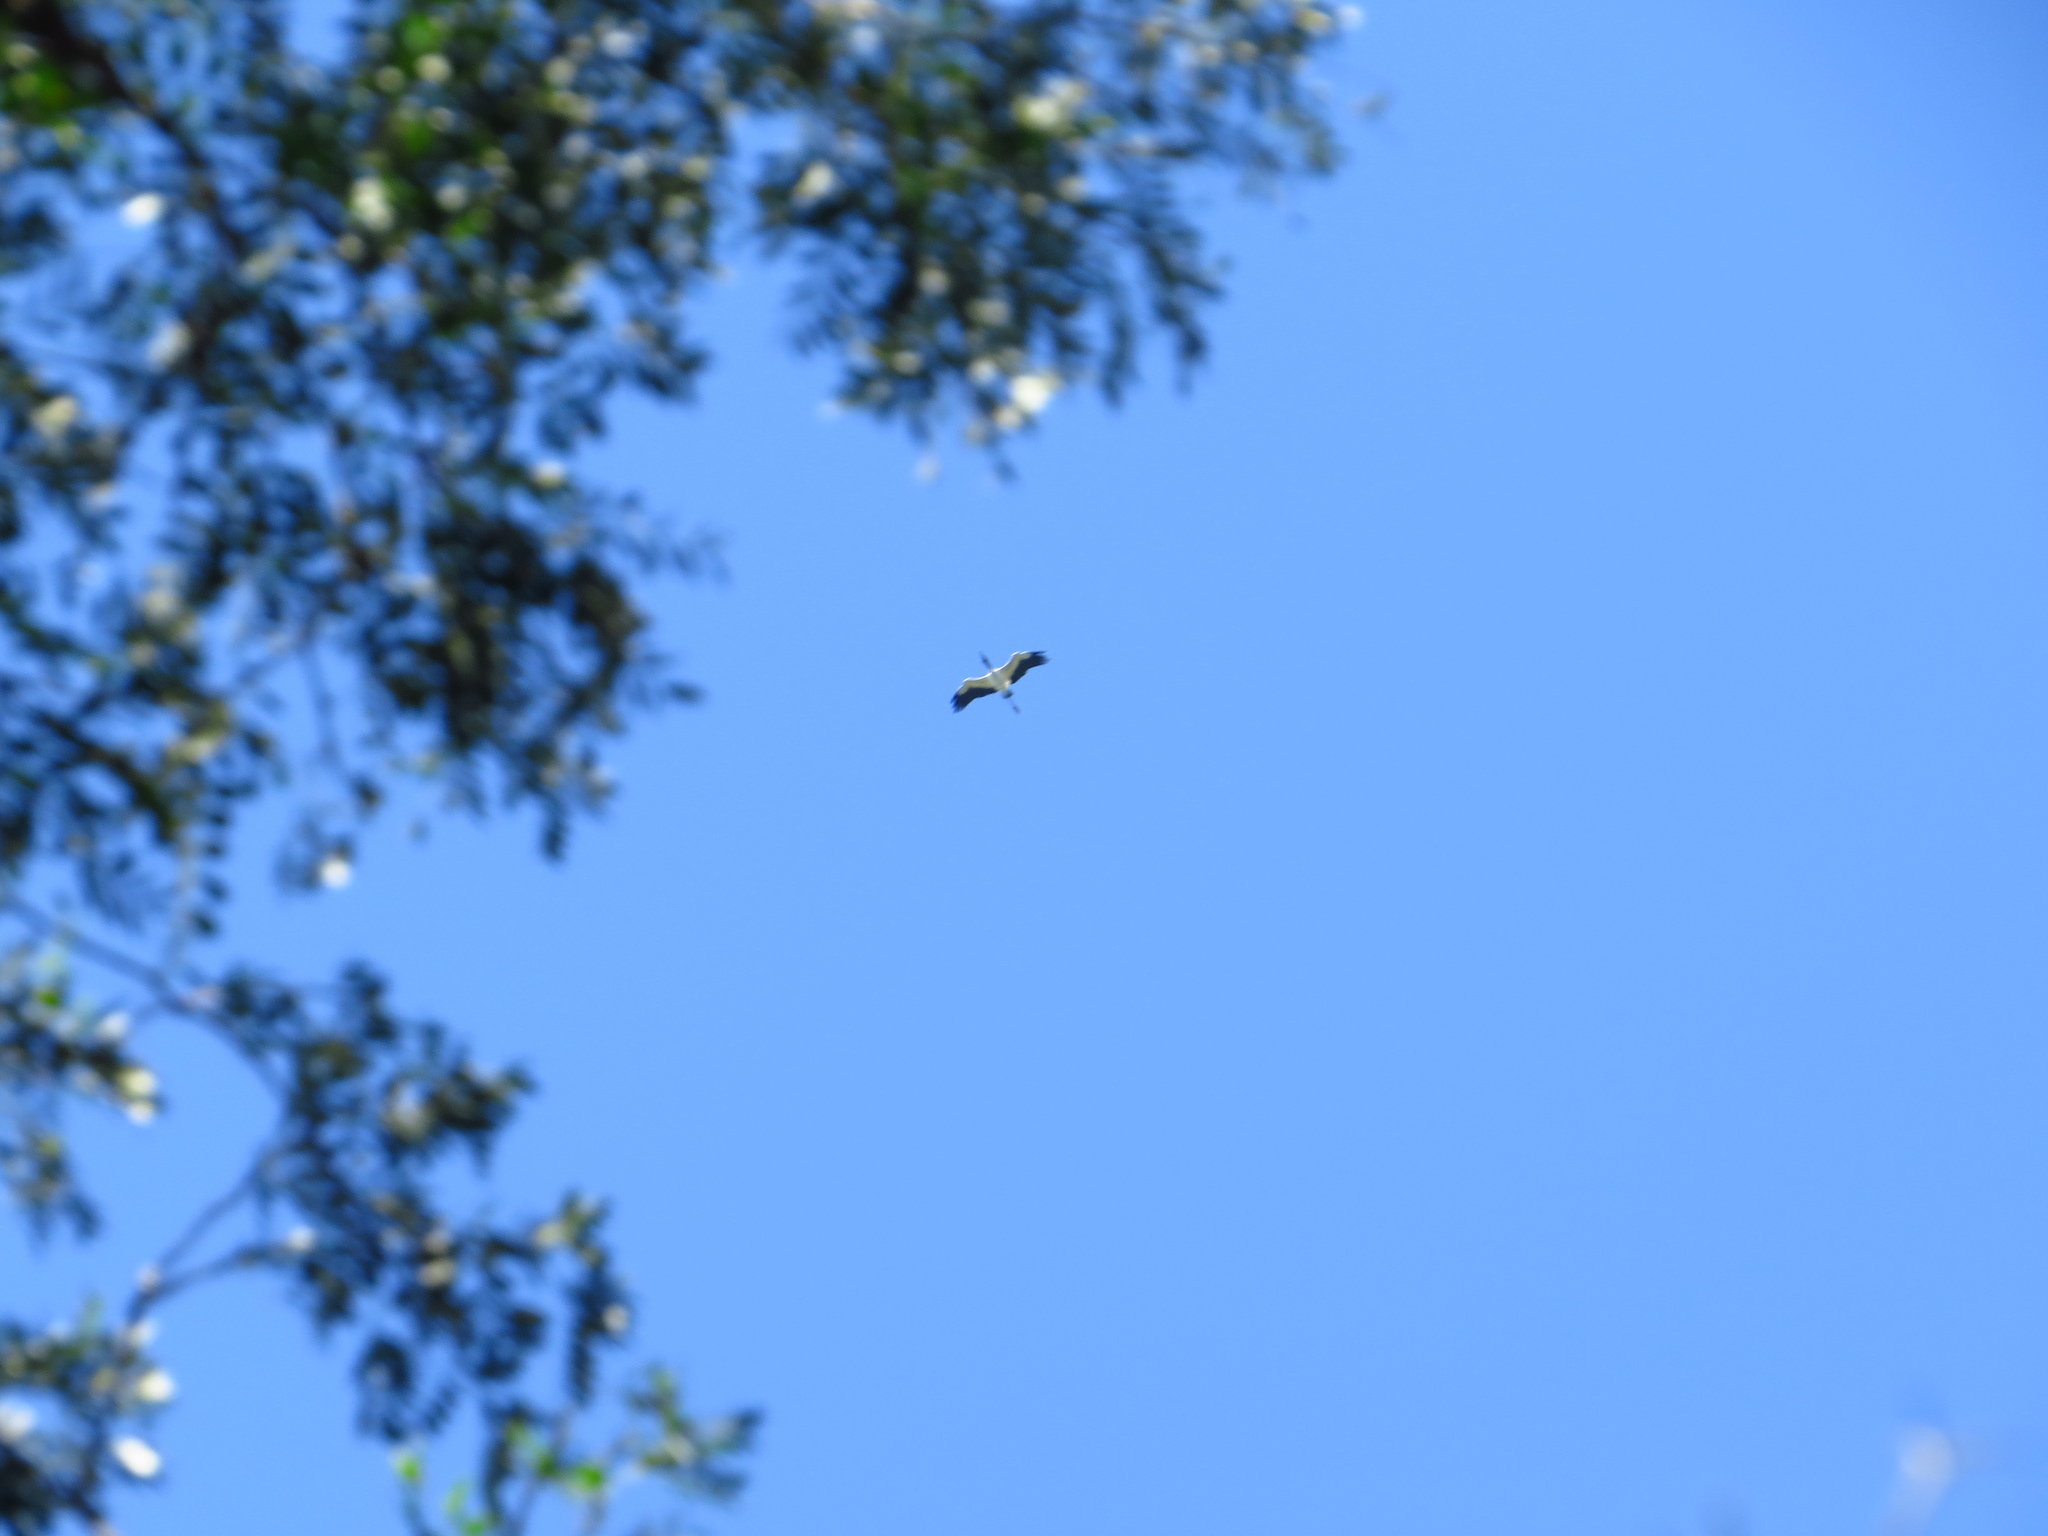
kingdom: Animalia
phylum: Chordata
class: Aves
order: Ciconiiformes
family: Ciconiidae
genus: Mycteria
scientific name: Mycteria americana
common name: Wood stork
